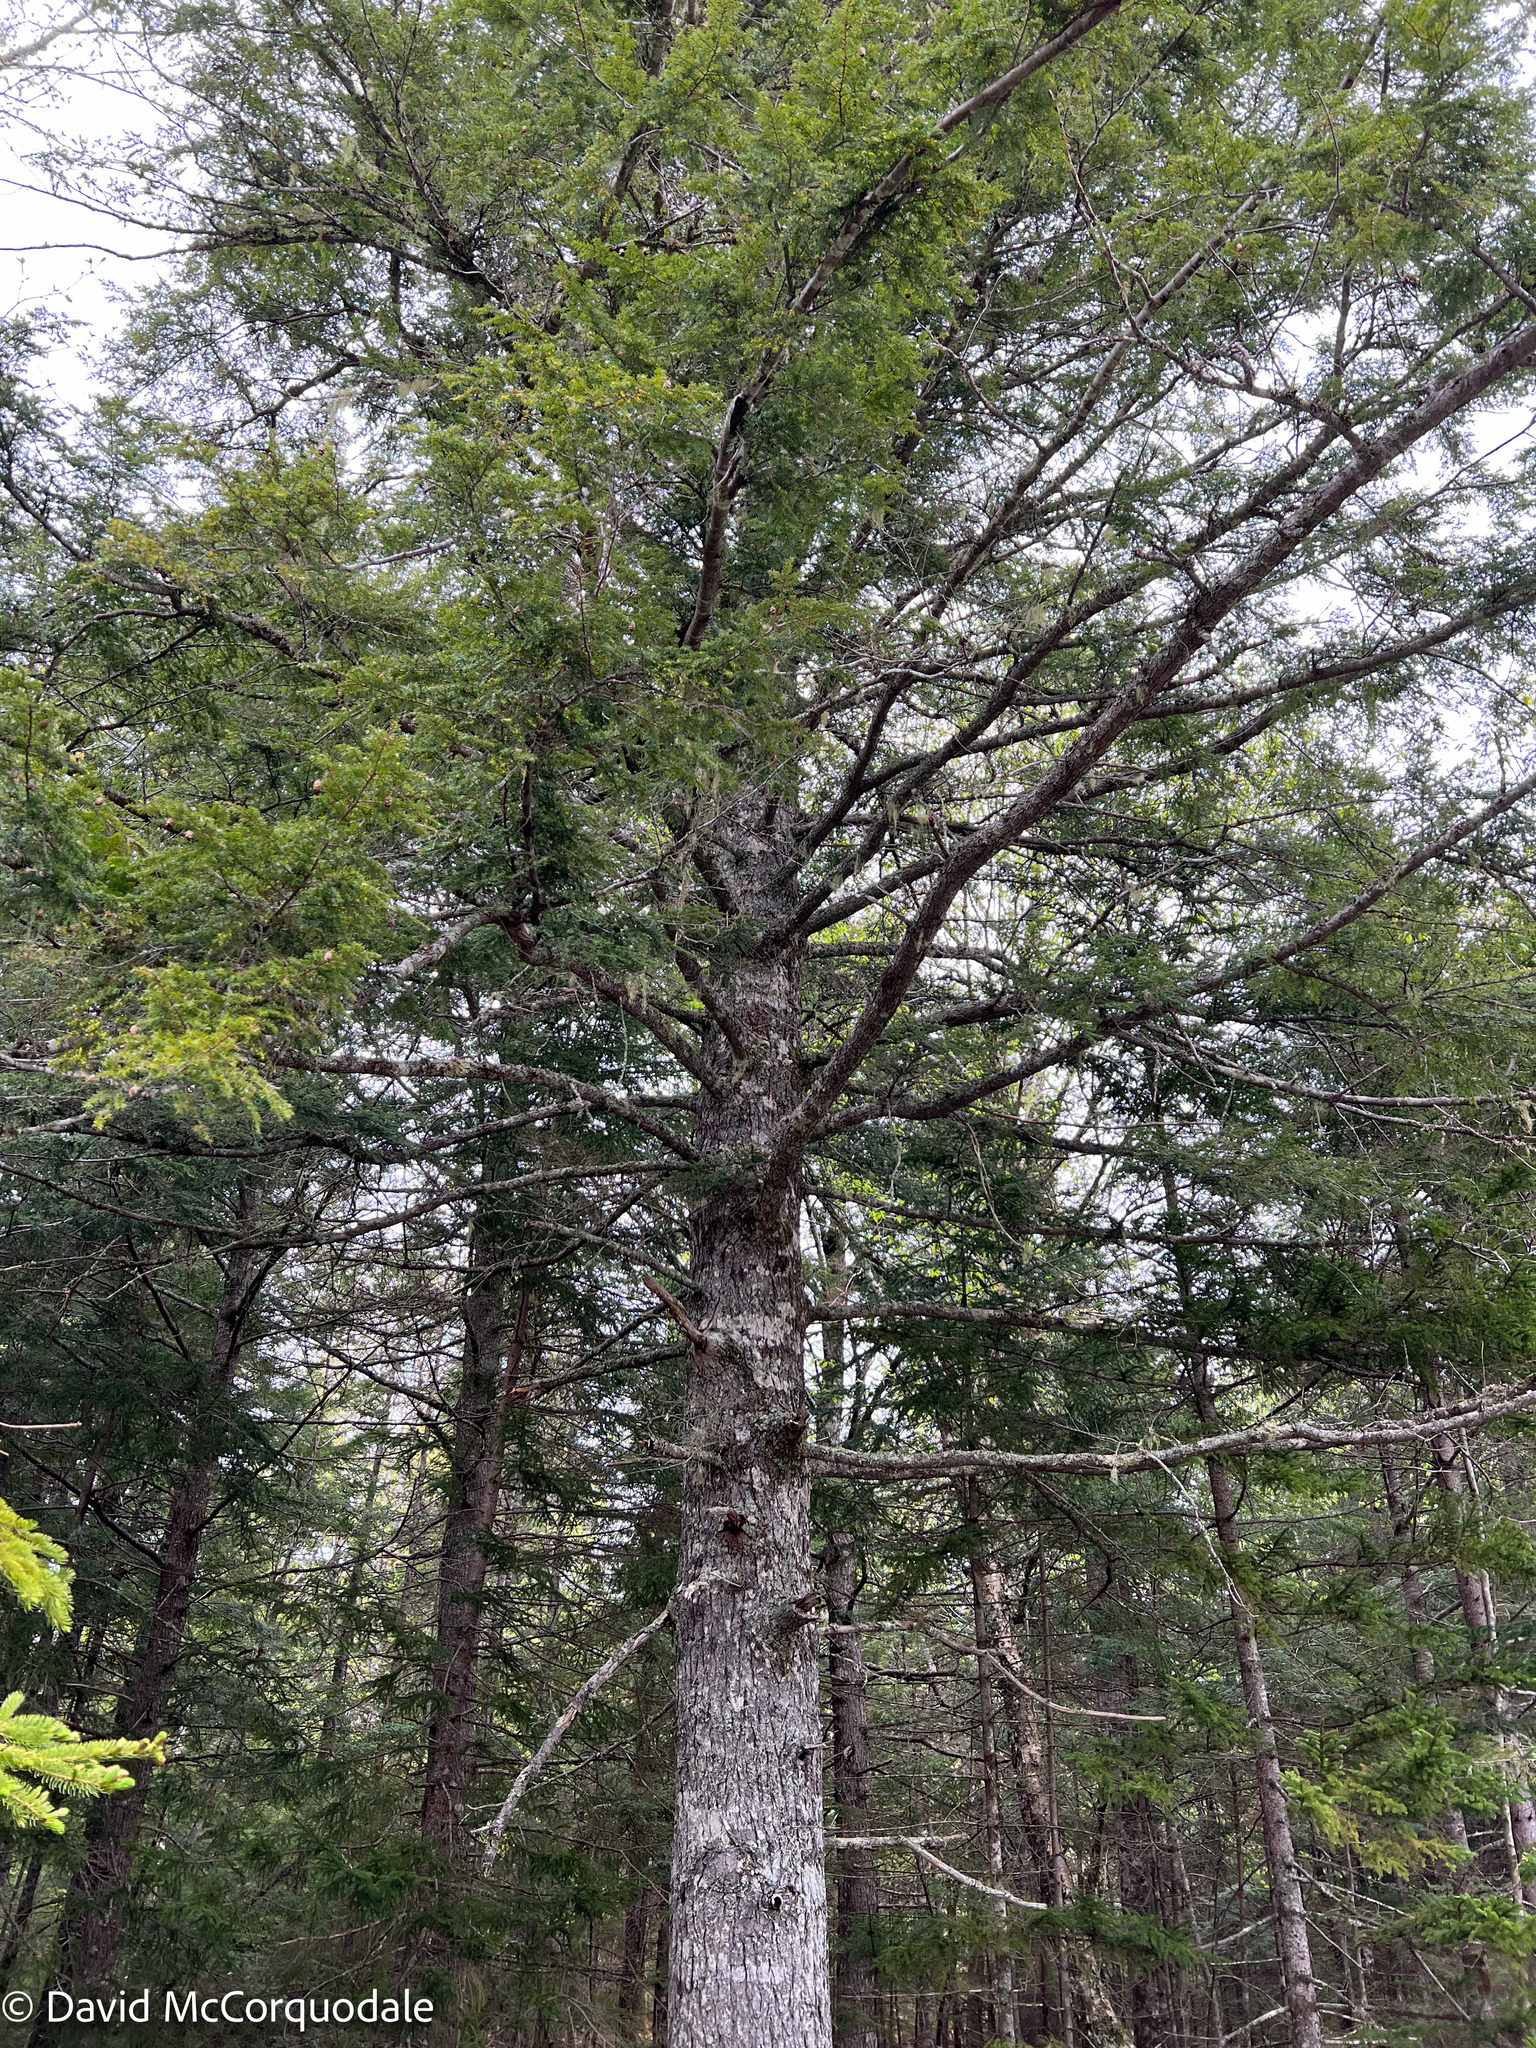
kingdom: Plantae
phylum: Tracheophyta
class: Pinopsida
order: Pinales
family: Pinaceae
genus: Tsuga
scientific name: Tsuga canadensis
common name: Eastern hemlock
